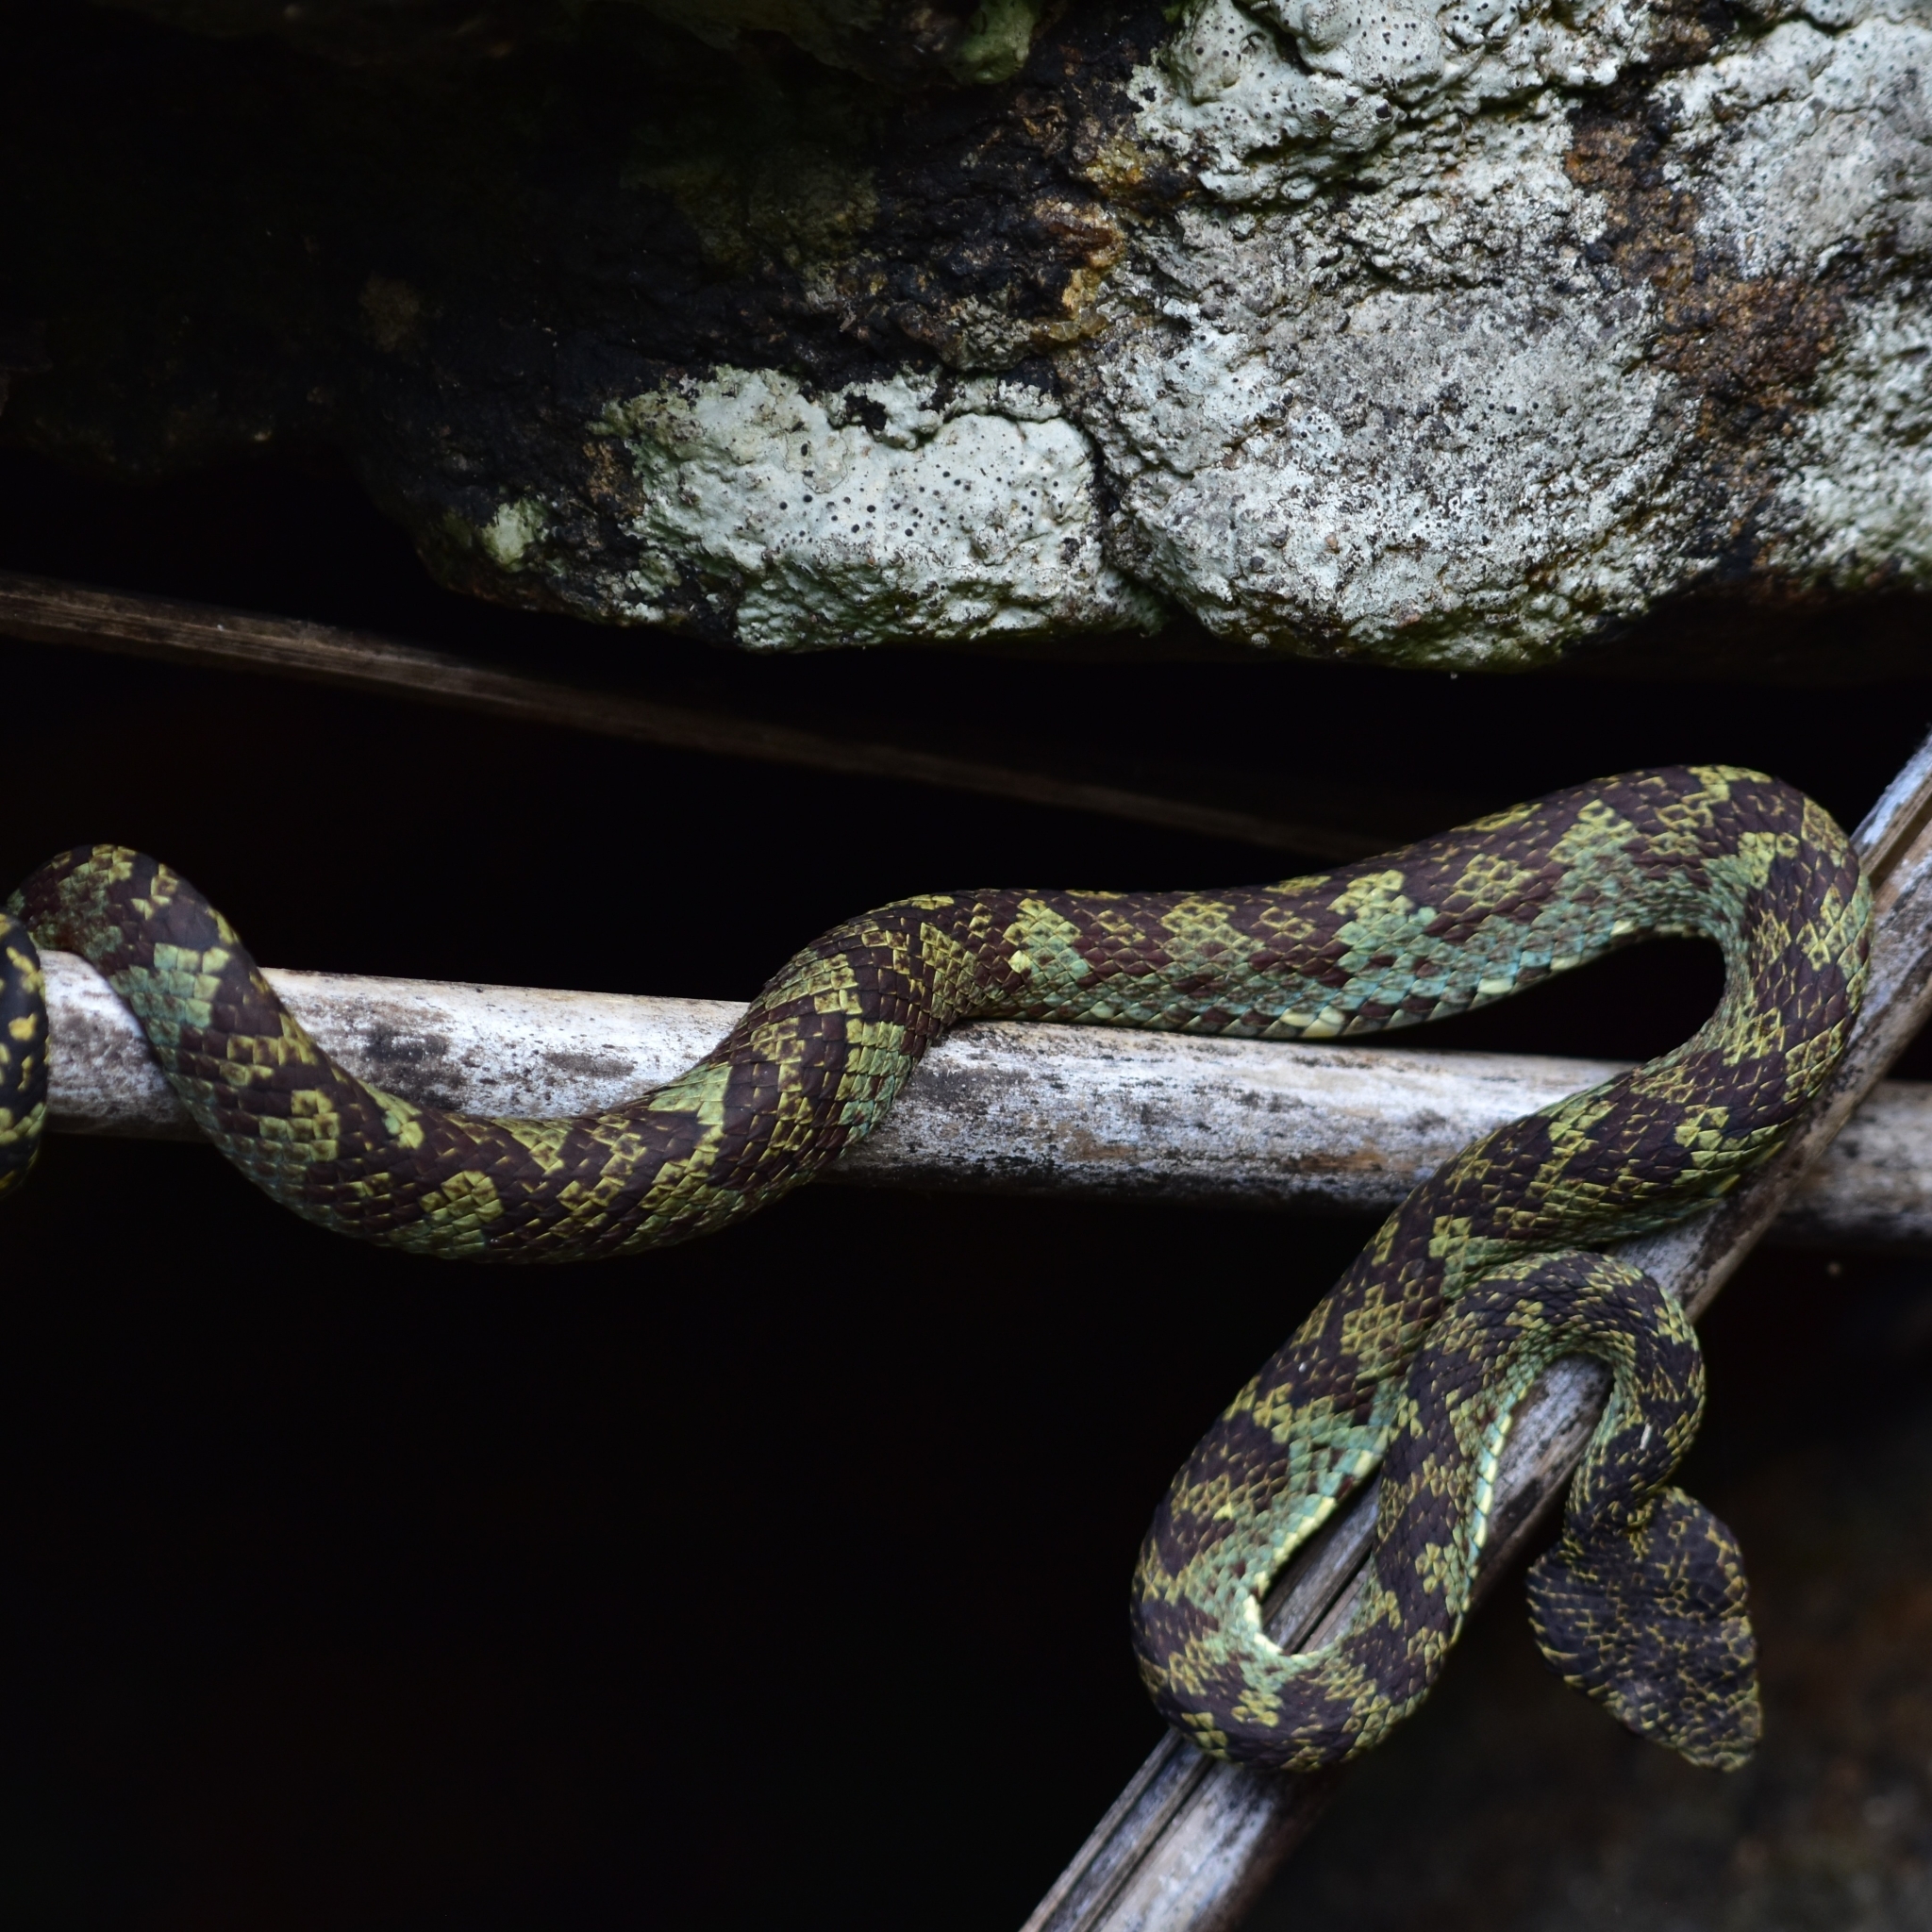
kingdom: Animalia
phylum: Chordata
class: Squamata
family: Viperidae
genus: Craspedocephalus
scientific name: Craspedocephalus anamallensis
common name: Malabarian pit viper
